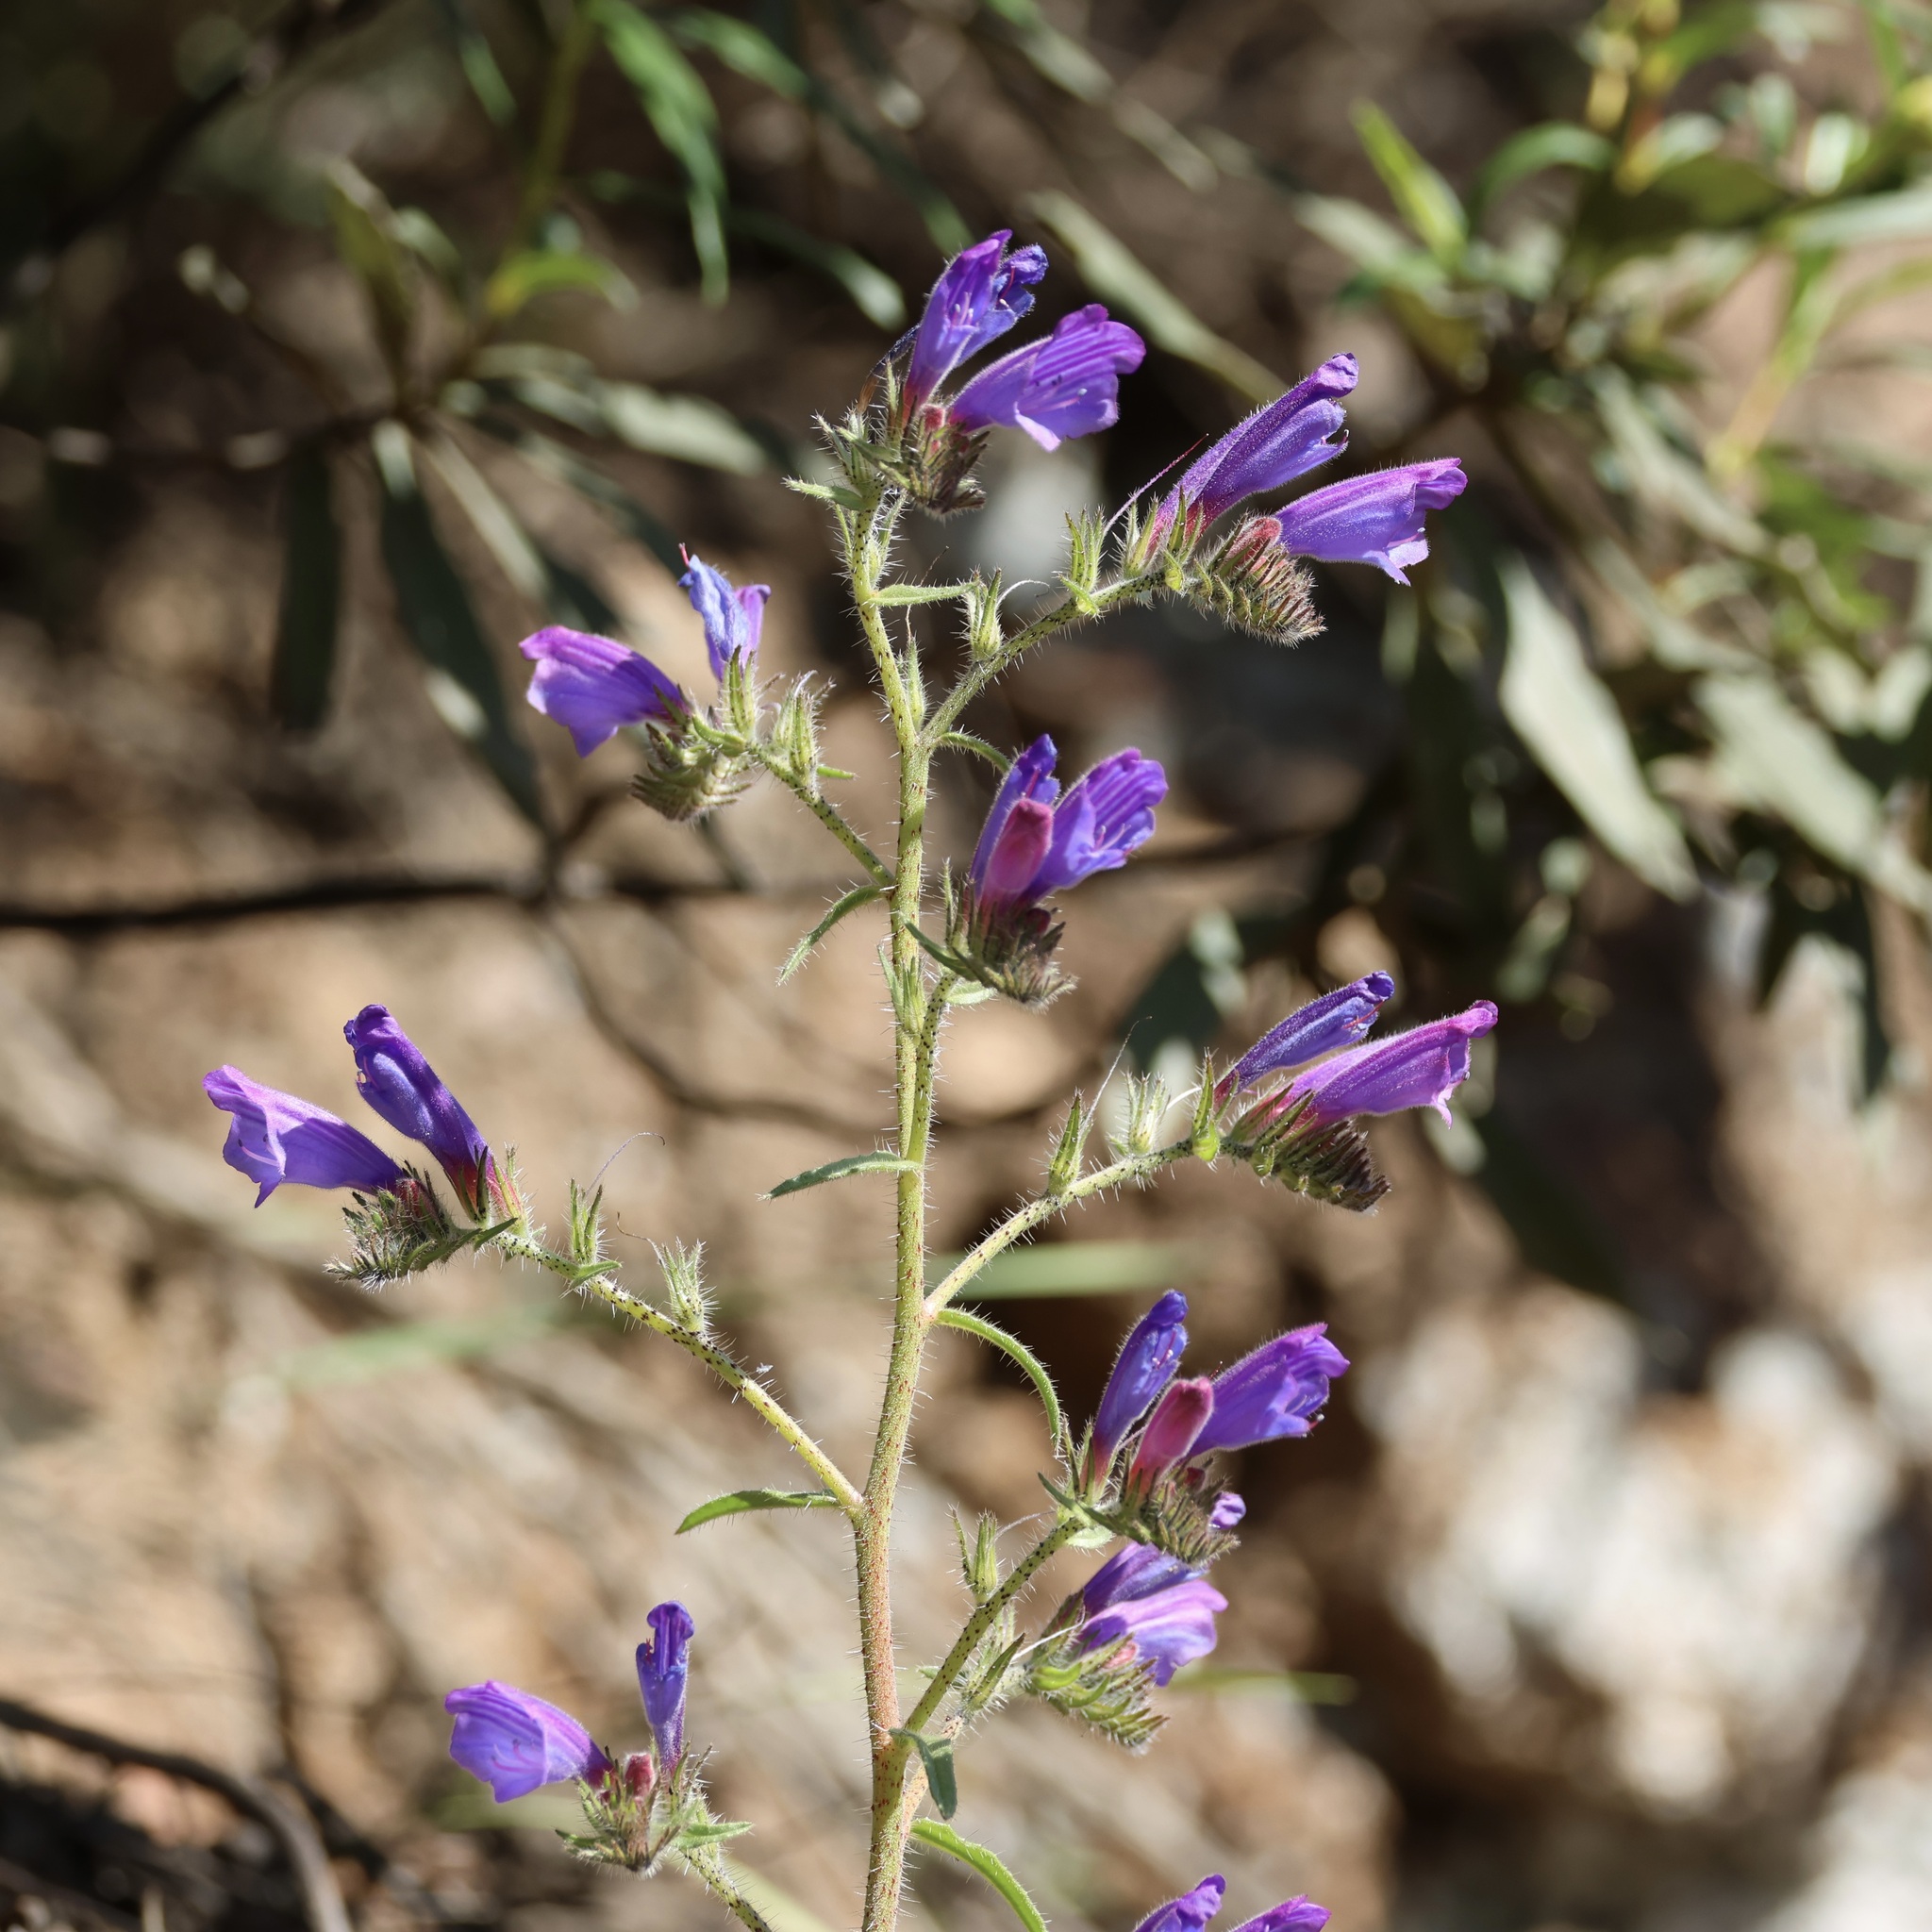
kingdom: Plantae
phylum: Tracheophyta
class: Magnoliopsida
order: Boraginales
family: Boraginaceae
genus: Echium
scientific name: Echium creticum
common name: Cretan viper's bugloss
